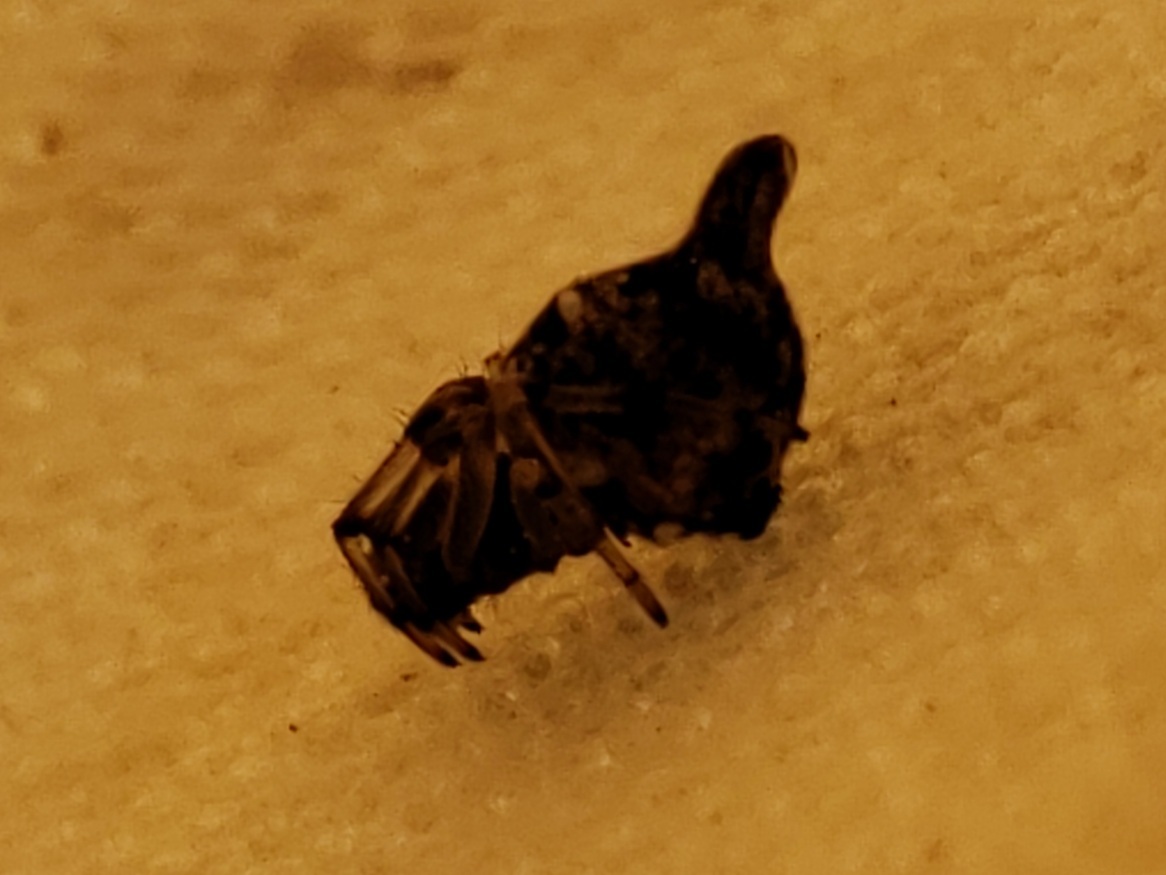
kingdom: Animalia
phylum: Arthropoda
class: Arachnida
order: Araneae
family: Araneidae
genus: Cyclosa
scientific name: Cyclosa turbinata
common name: Orb weavers
